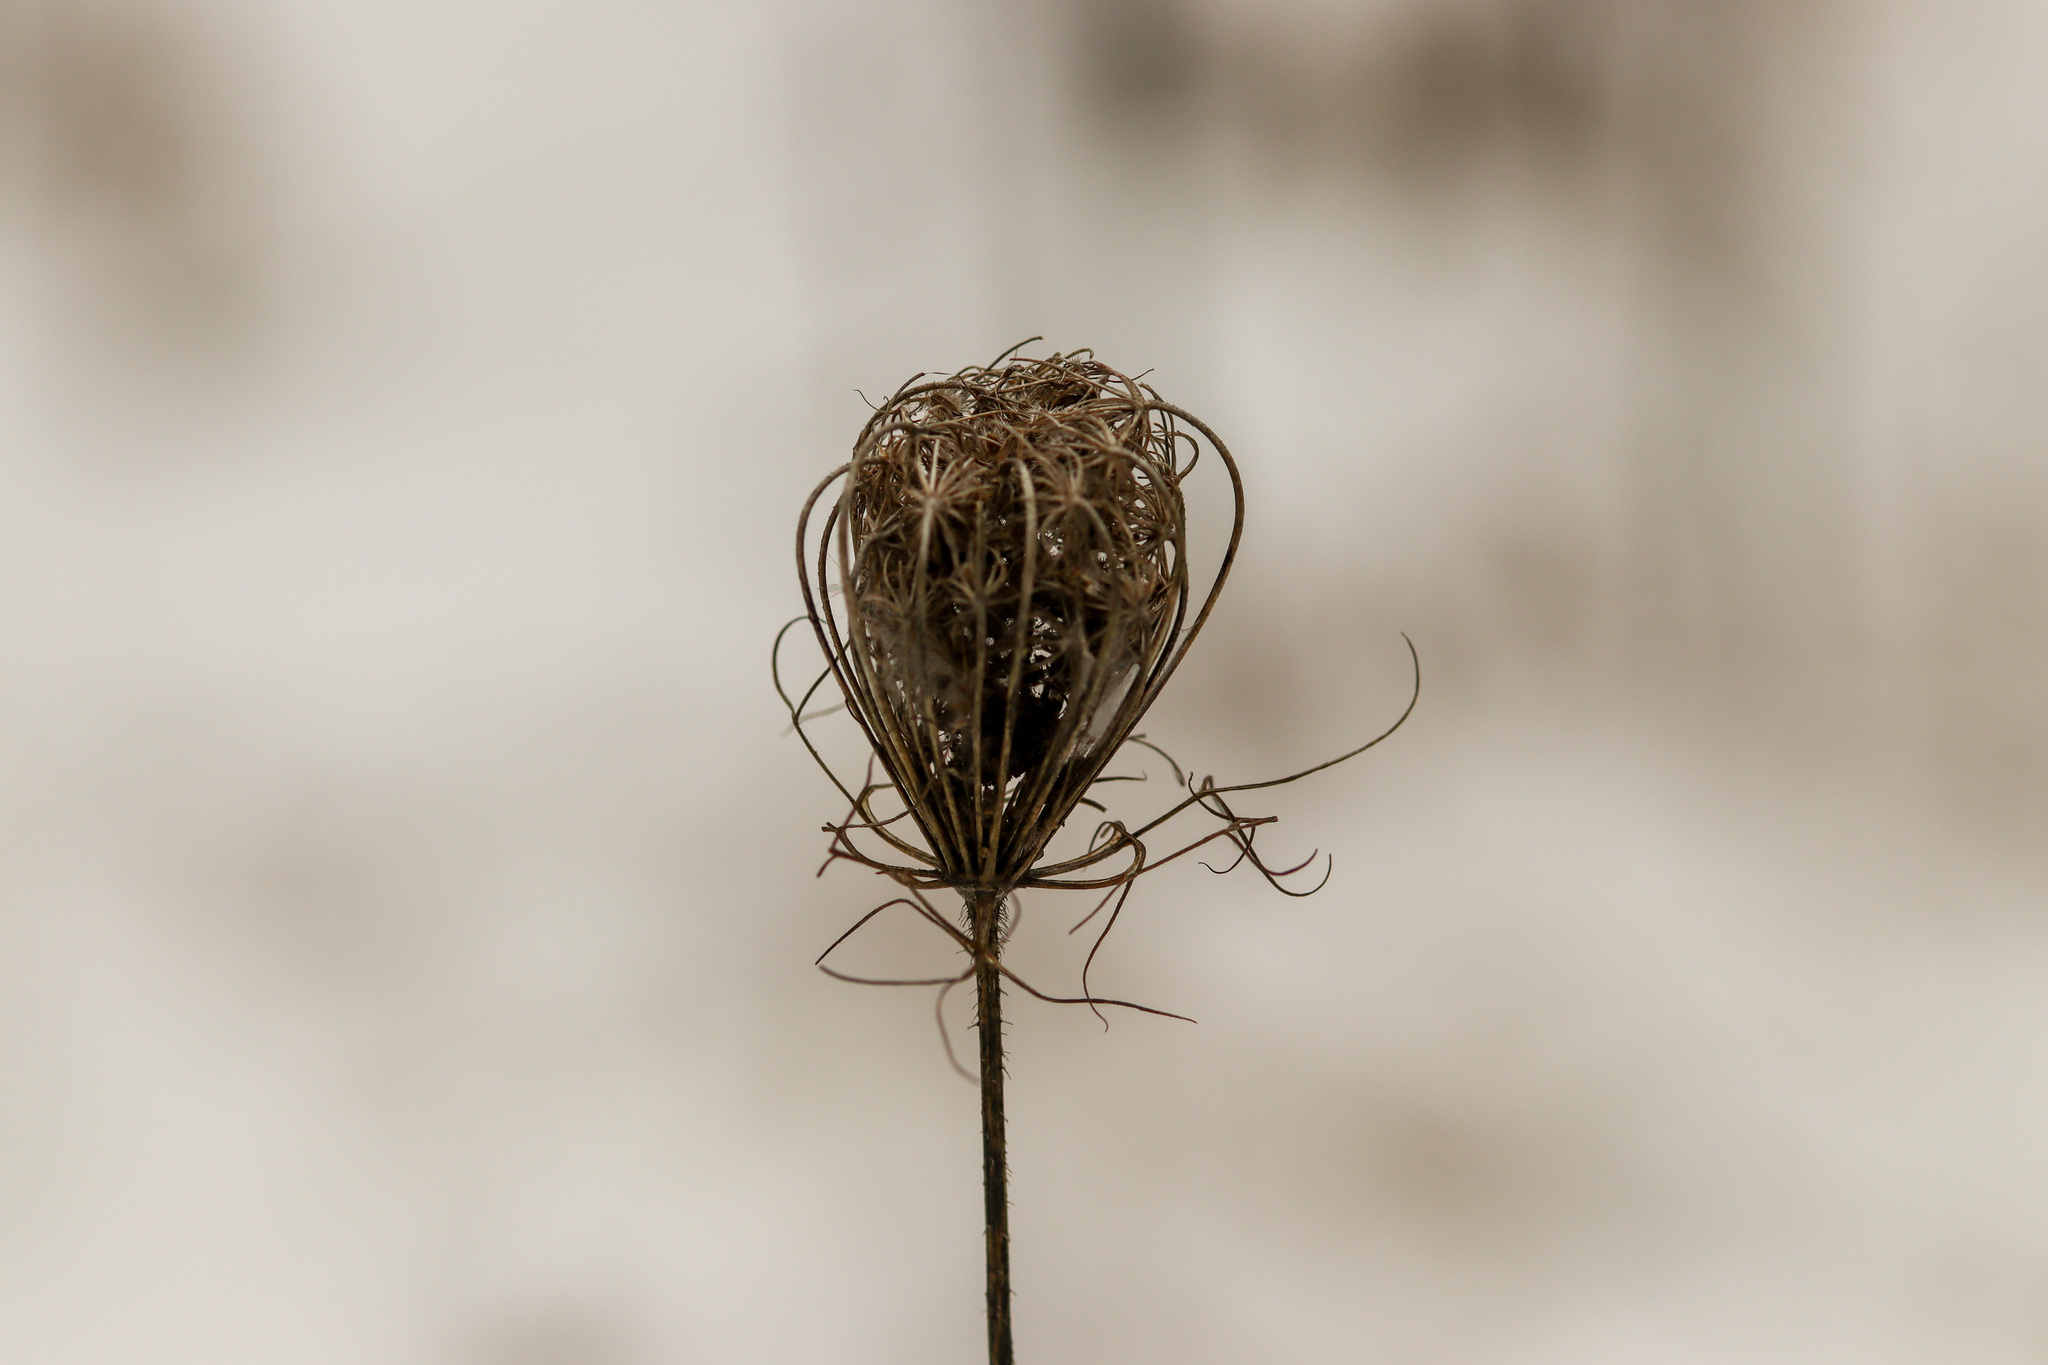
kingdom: Plantae
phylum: Tracheophyta
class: Magnoliopsida
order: Apiales
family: Apiaceae
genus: Daucus
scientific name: Daucus carota
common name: Wild carrot
